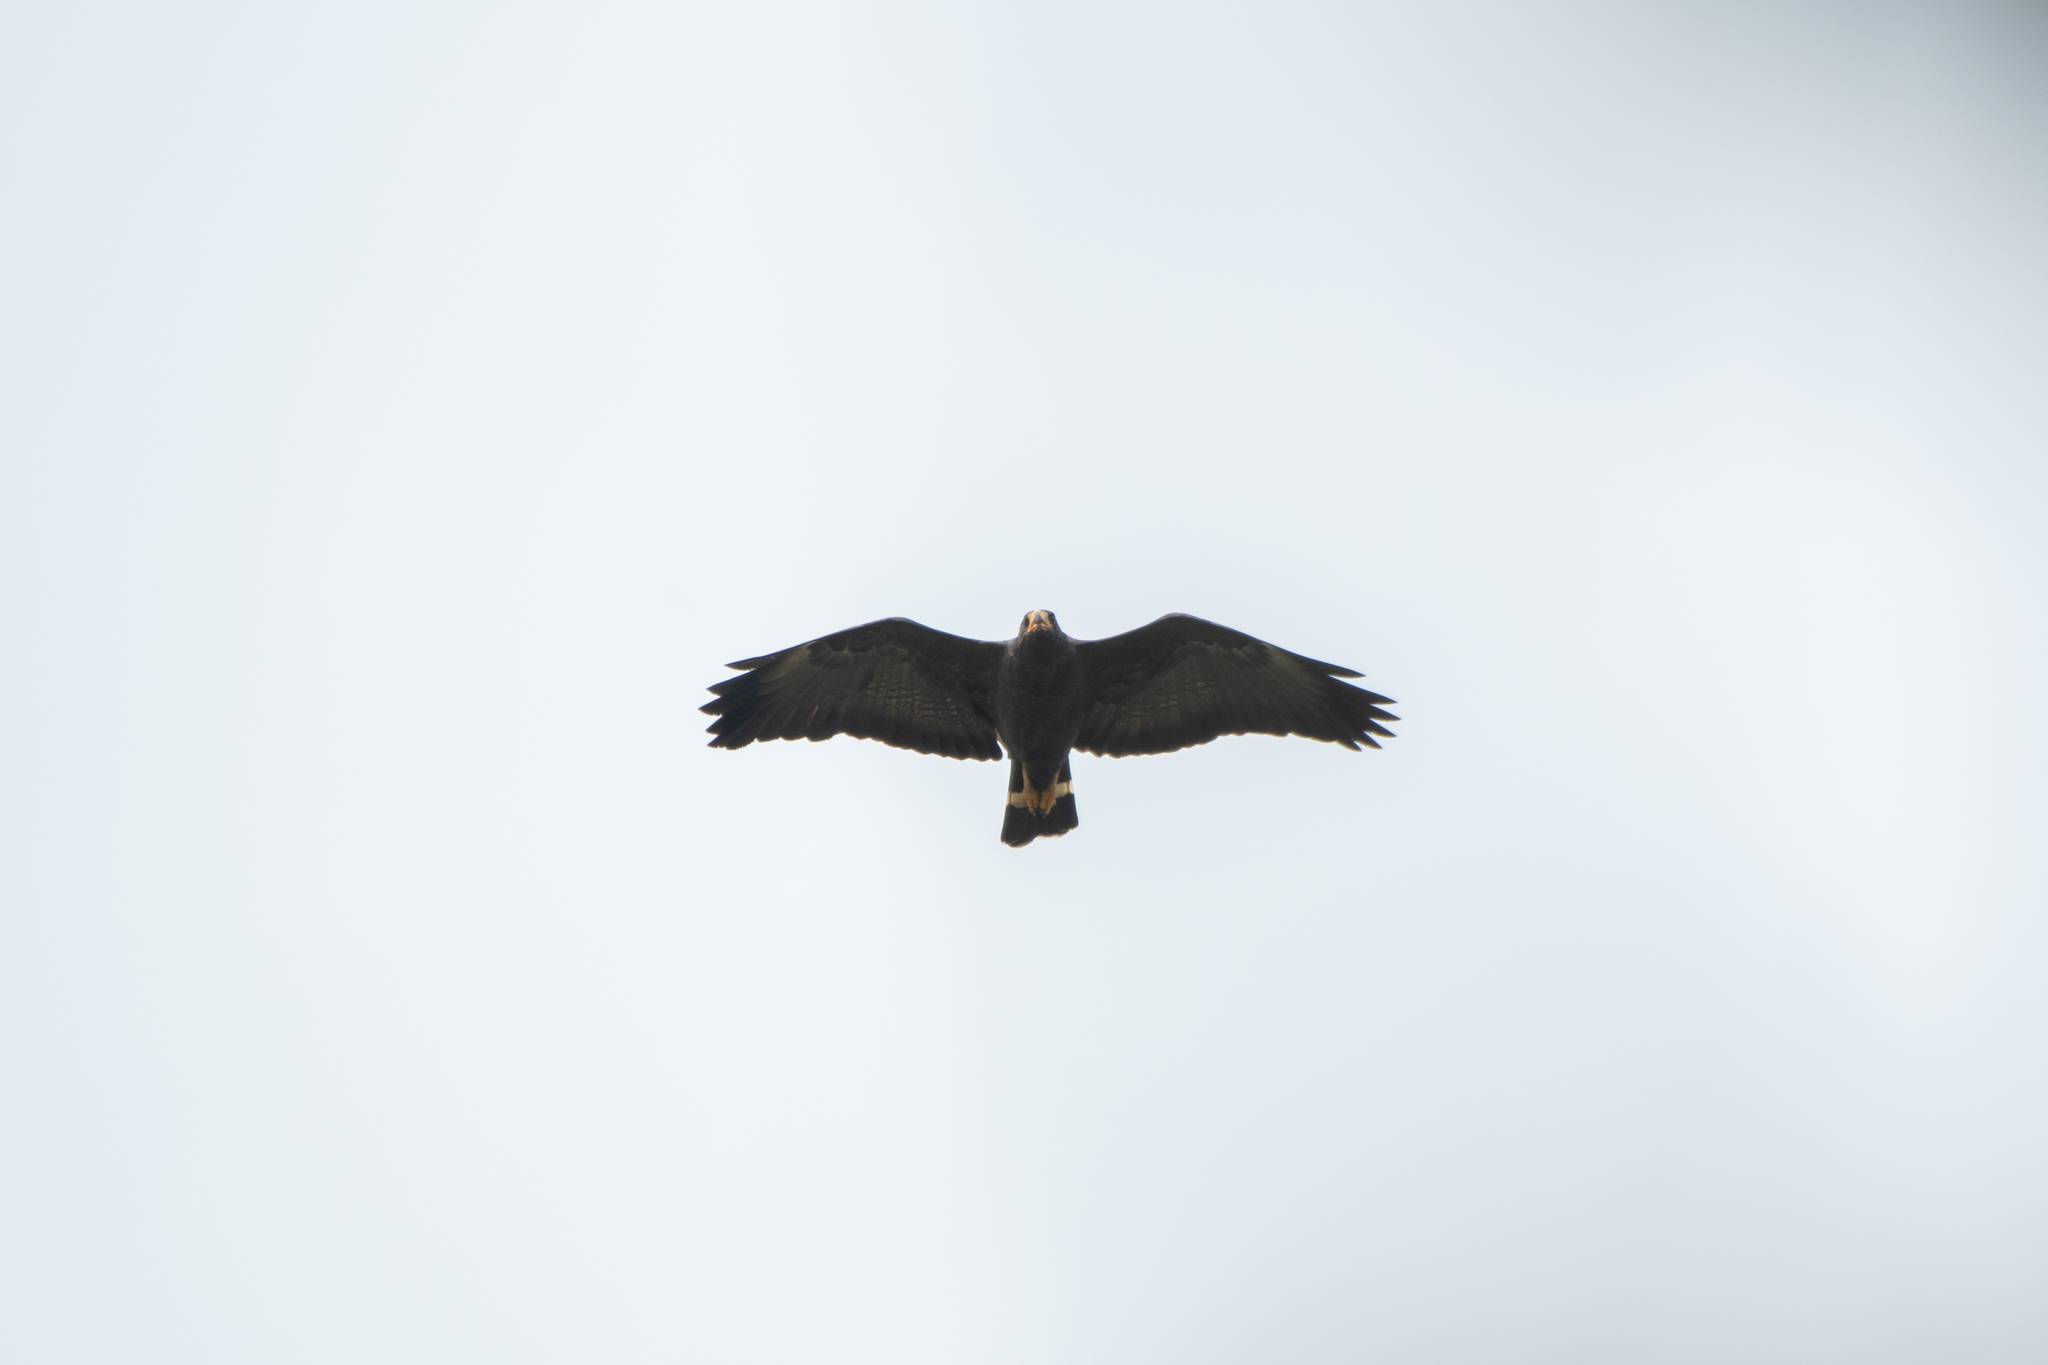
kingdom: Animalia
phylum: Chordata
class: Aves
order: Accipitriformes
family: Accipitridae
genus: Buteogallus
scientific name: Buteogallus anthracinus
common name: Common black hawk
